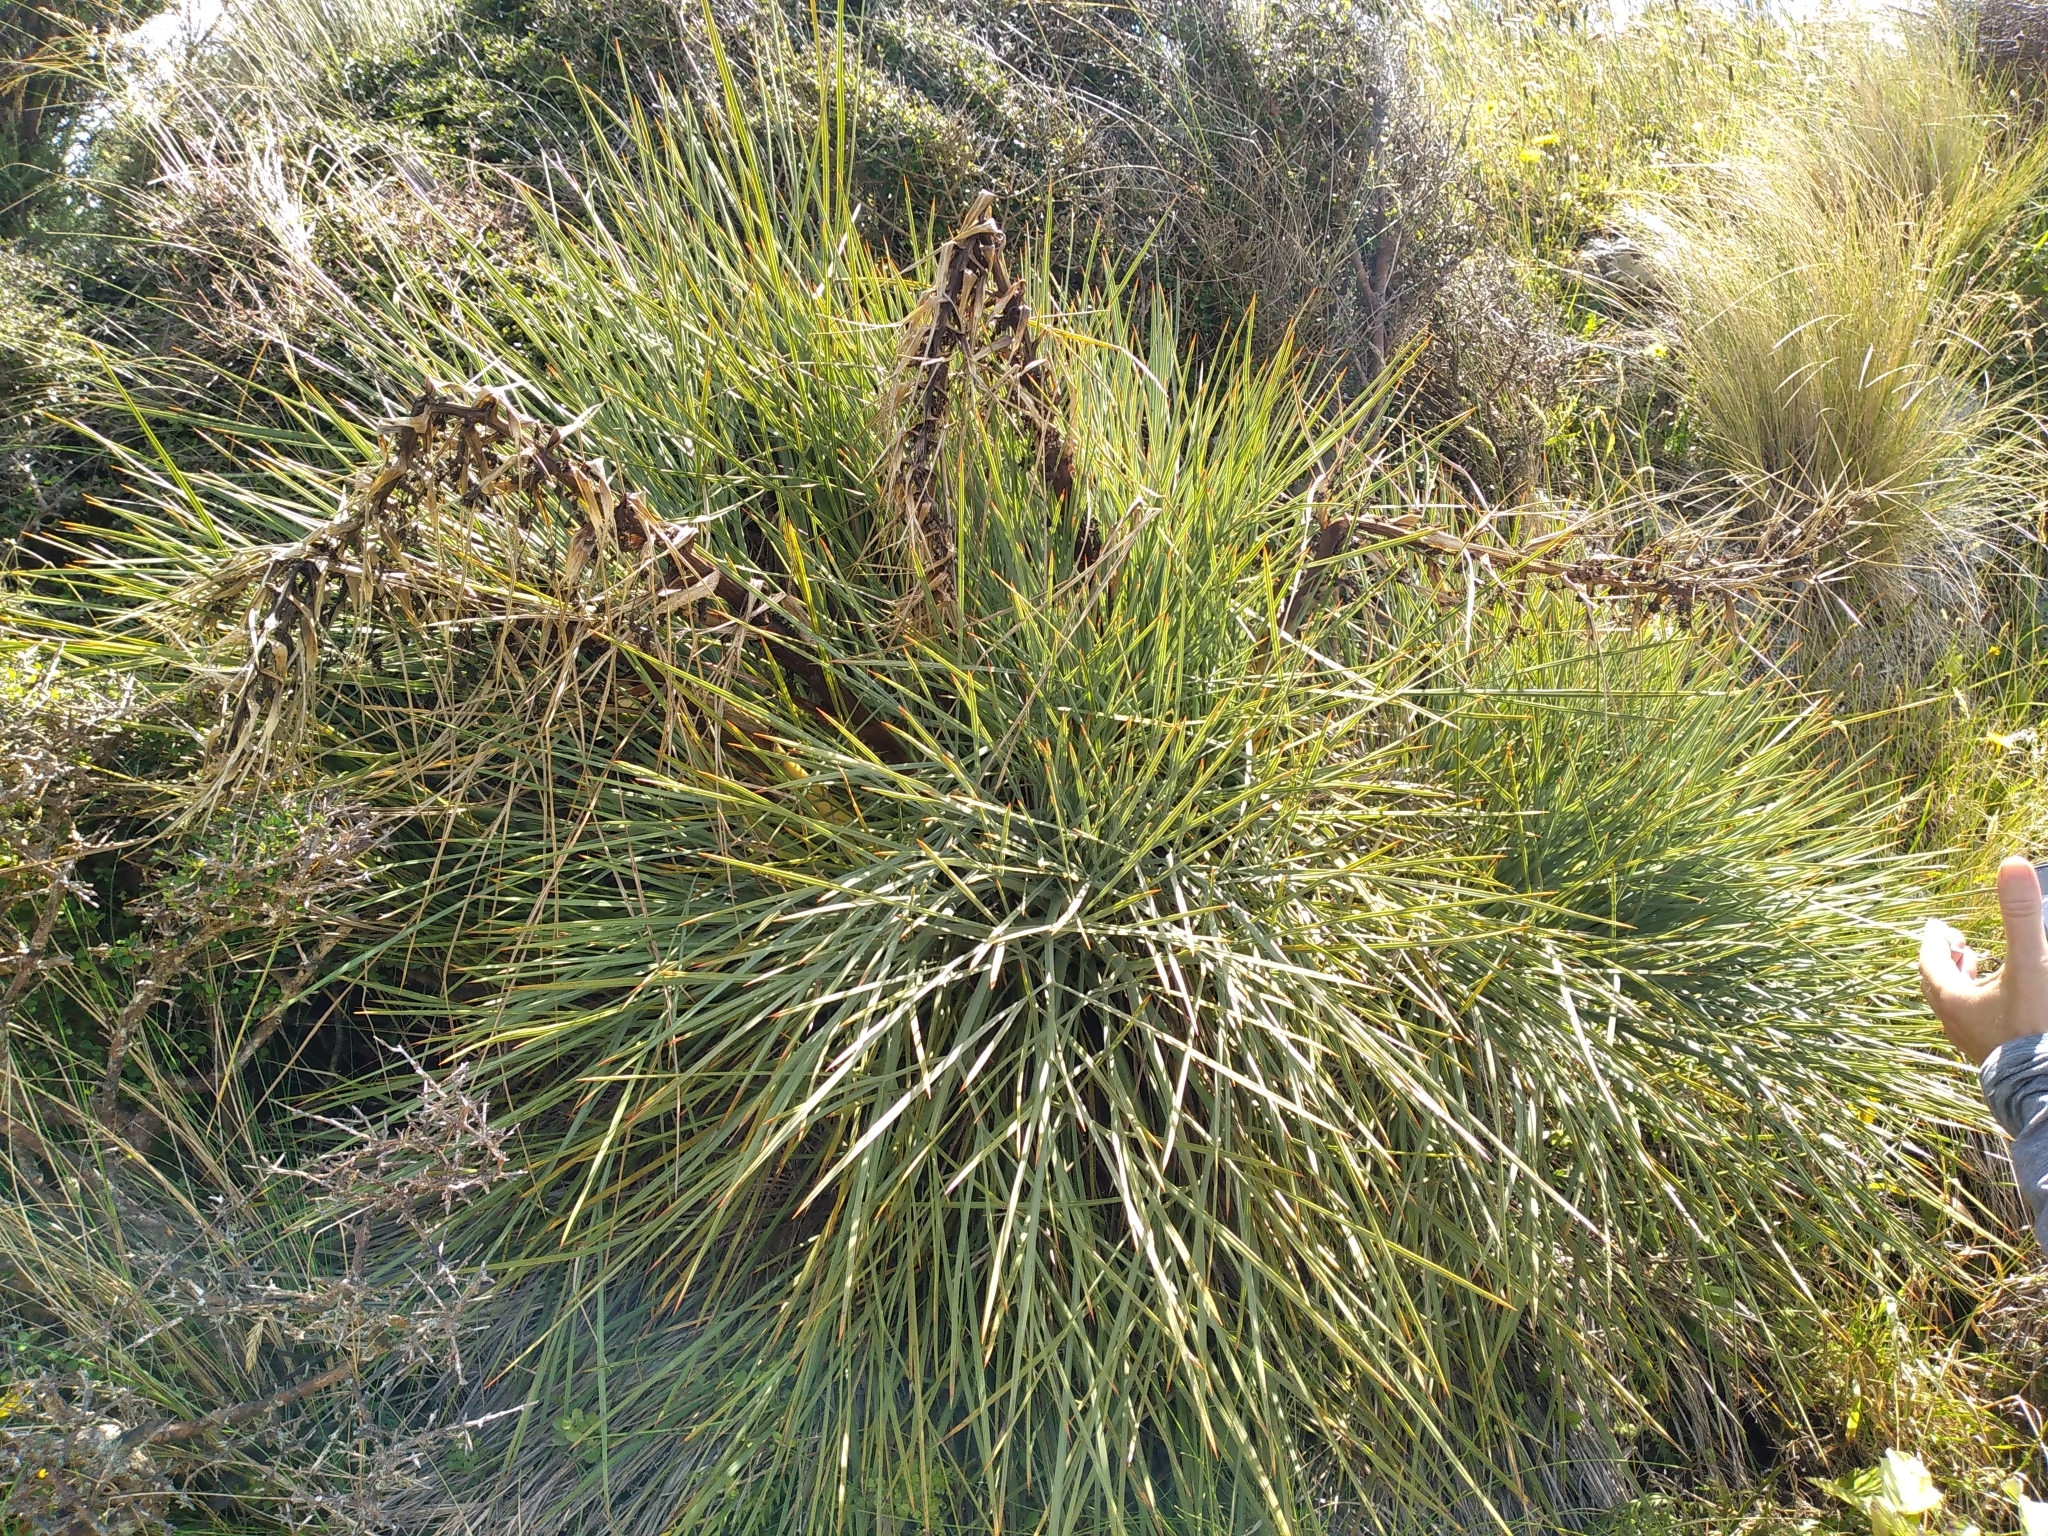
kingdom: Plantae
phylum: Tracheophyta
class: Magnoliopsida
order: Apiales
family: Apiaceae
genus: Aciphylla
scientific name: Aciphylla squarrosa
